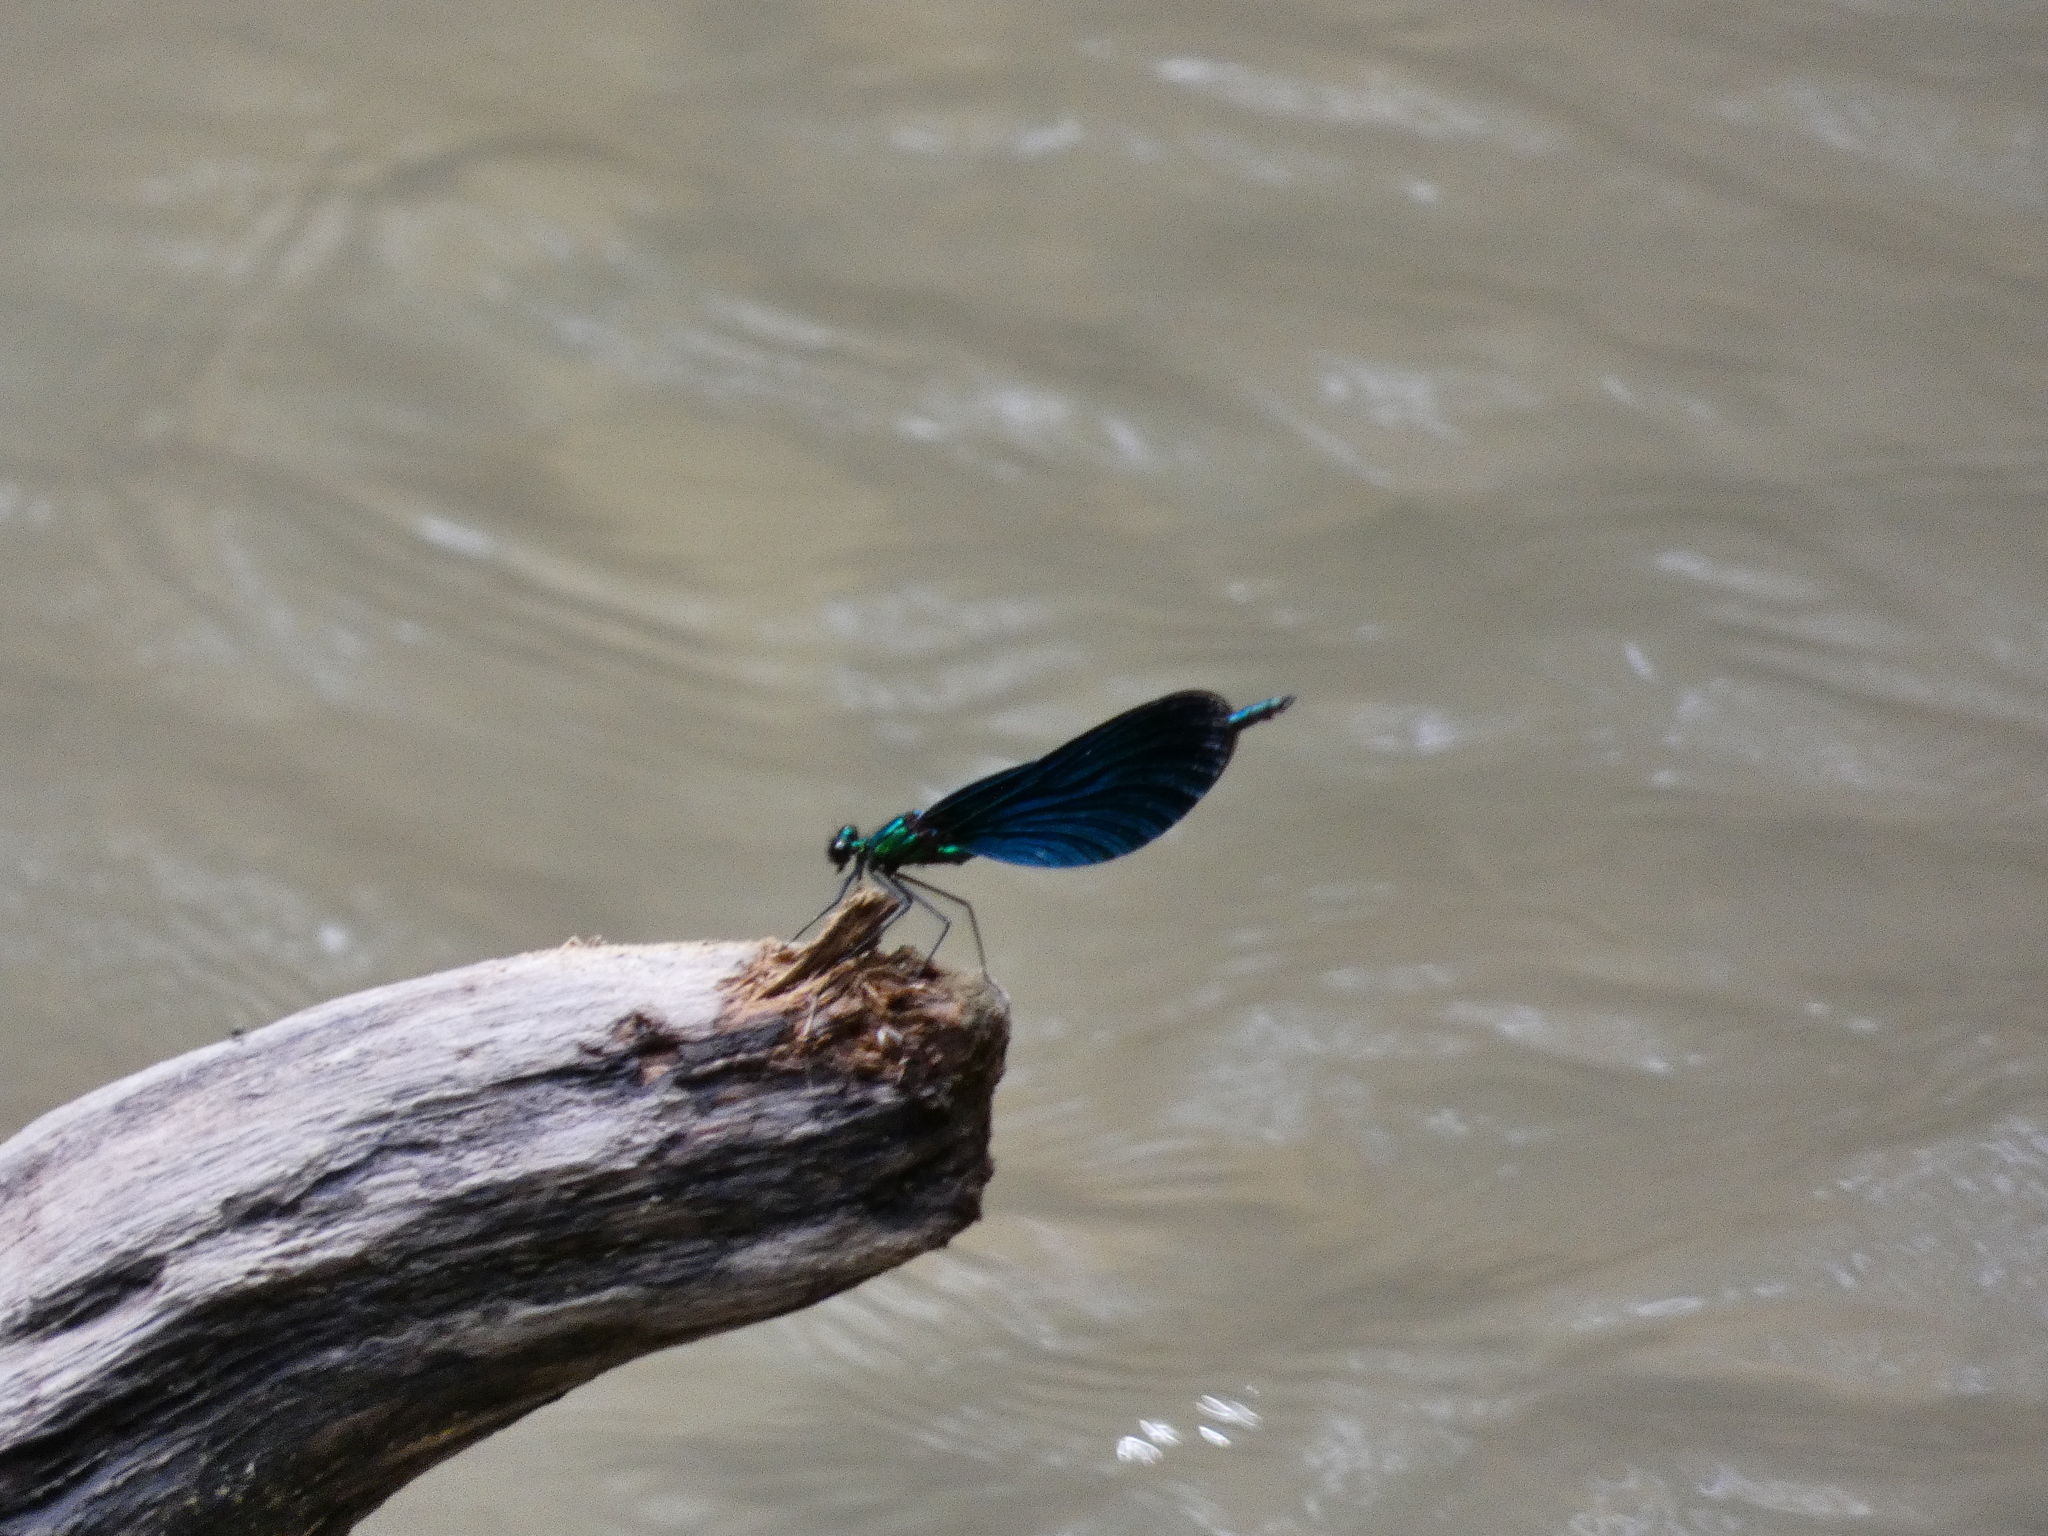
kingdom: Animalia
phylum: Arthropoda
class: Insecta
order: Odonata
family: Calopterygidae
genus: Calopteryx
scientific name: Calopteryx virgo
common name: Beautiful demoiselle
